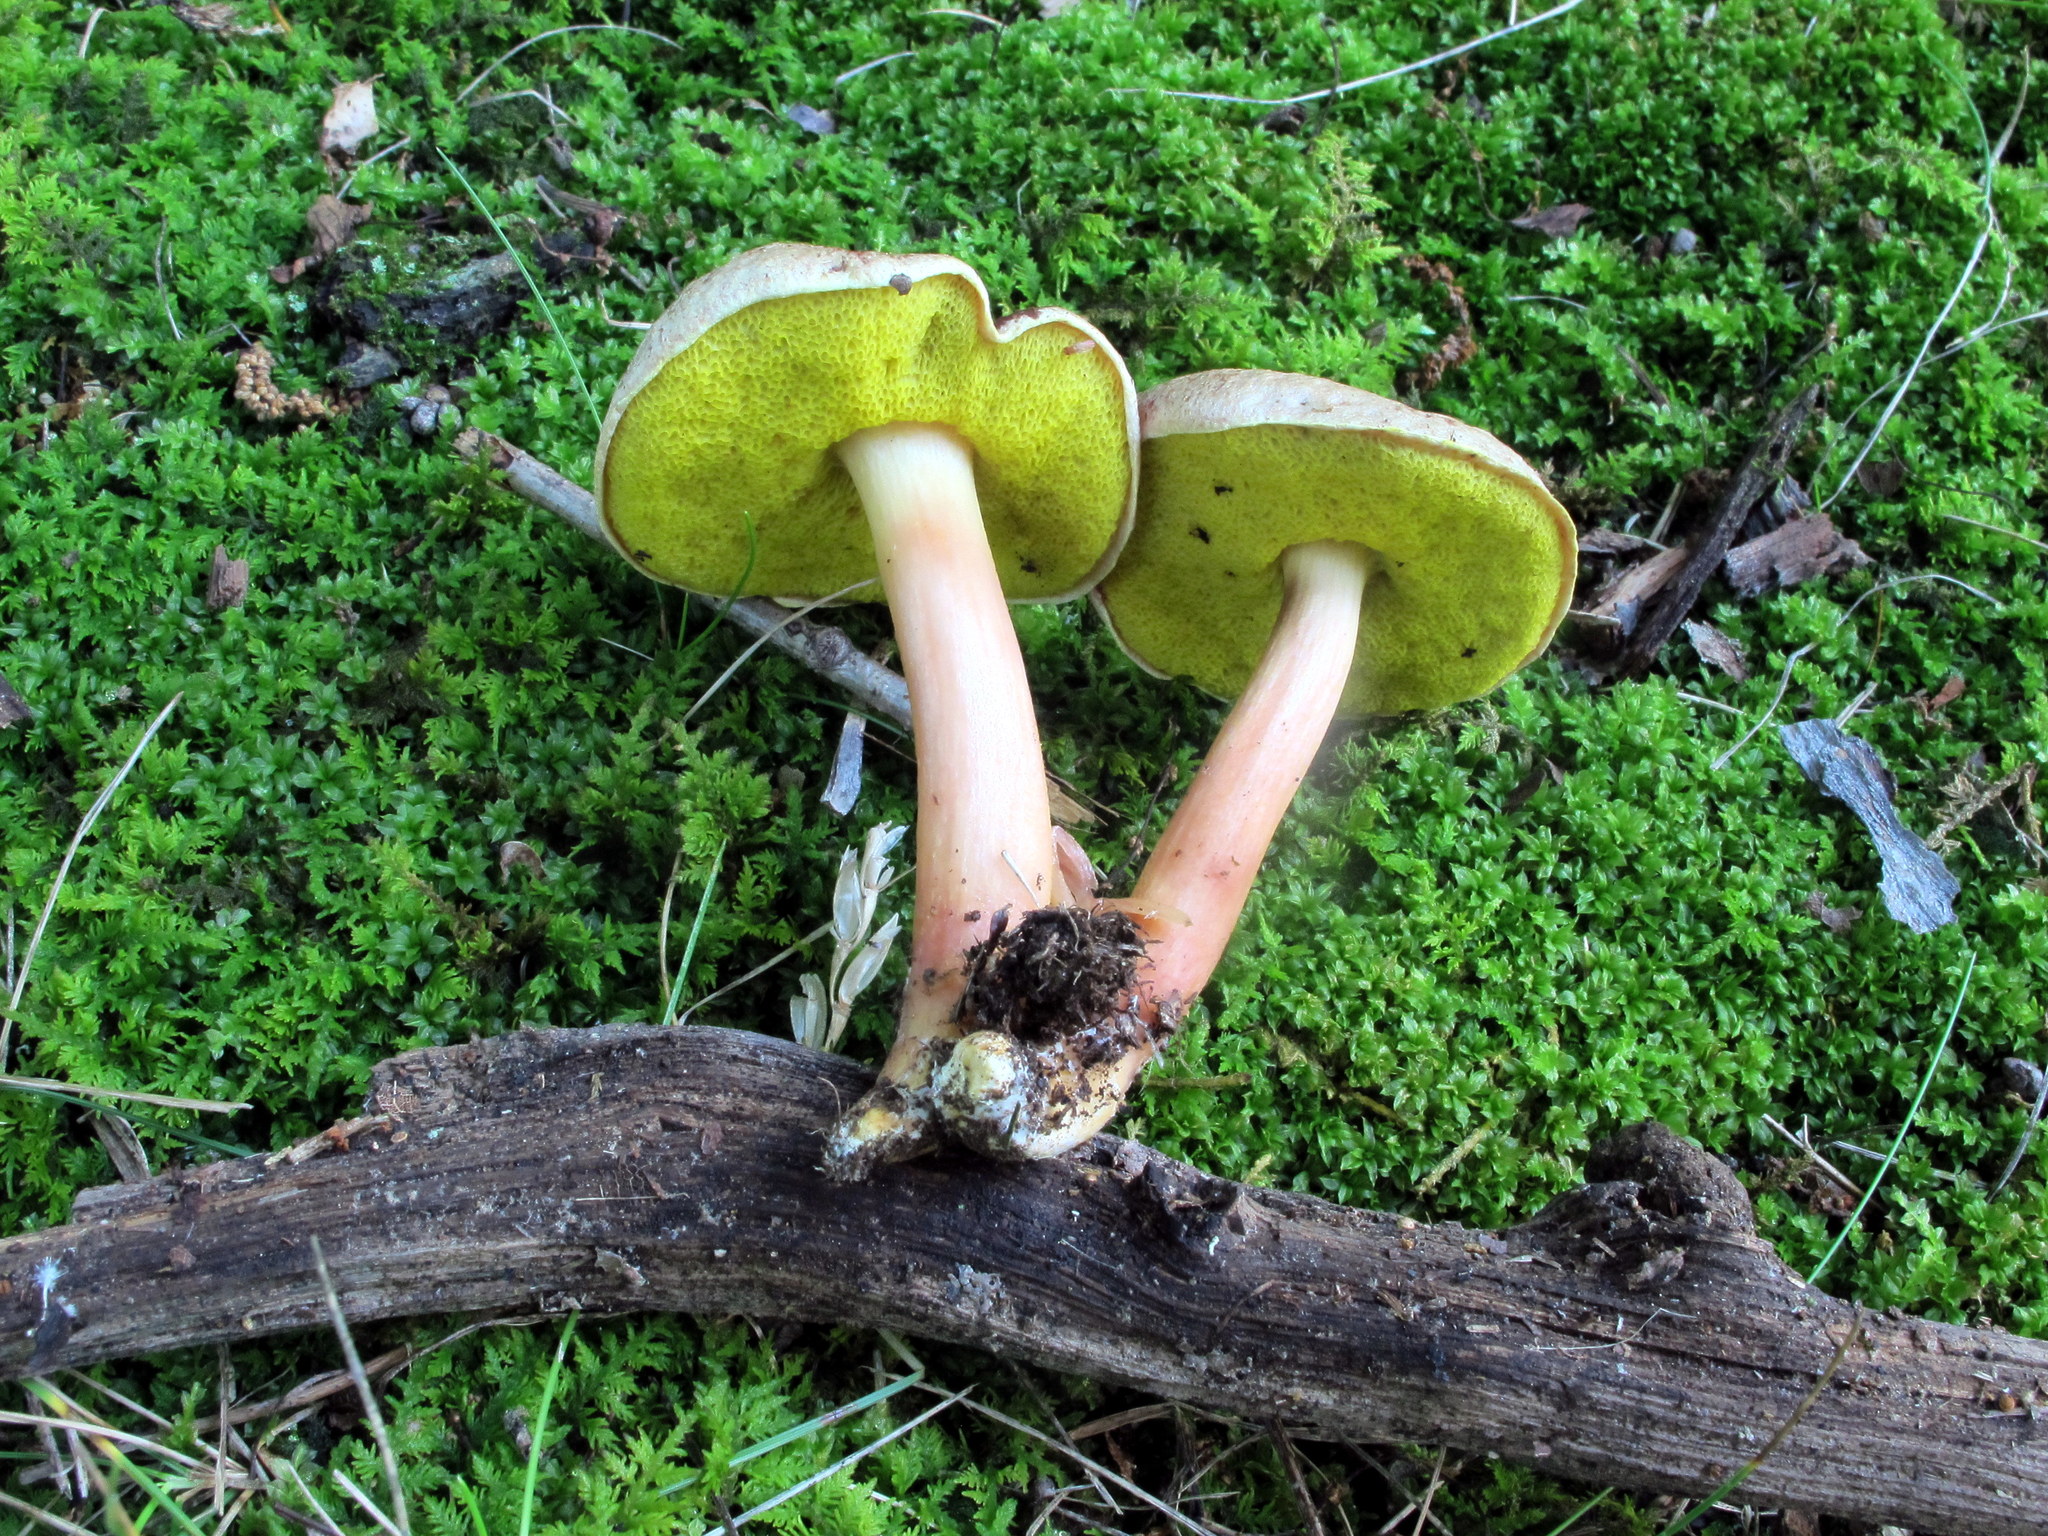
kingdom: Fungi
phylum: Basidiomycota
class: Agaricomycetes
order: Boletales
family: Boletaceae
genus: Aureoboletus
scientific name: Aureoboletus auriporus
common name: Sour gold-pored bolete
